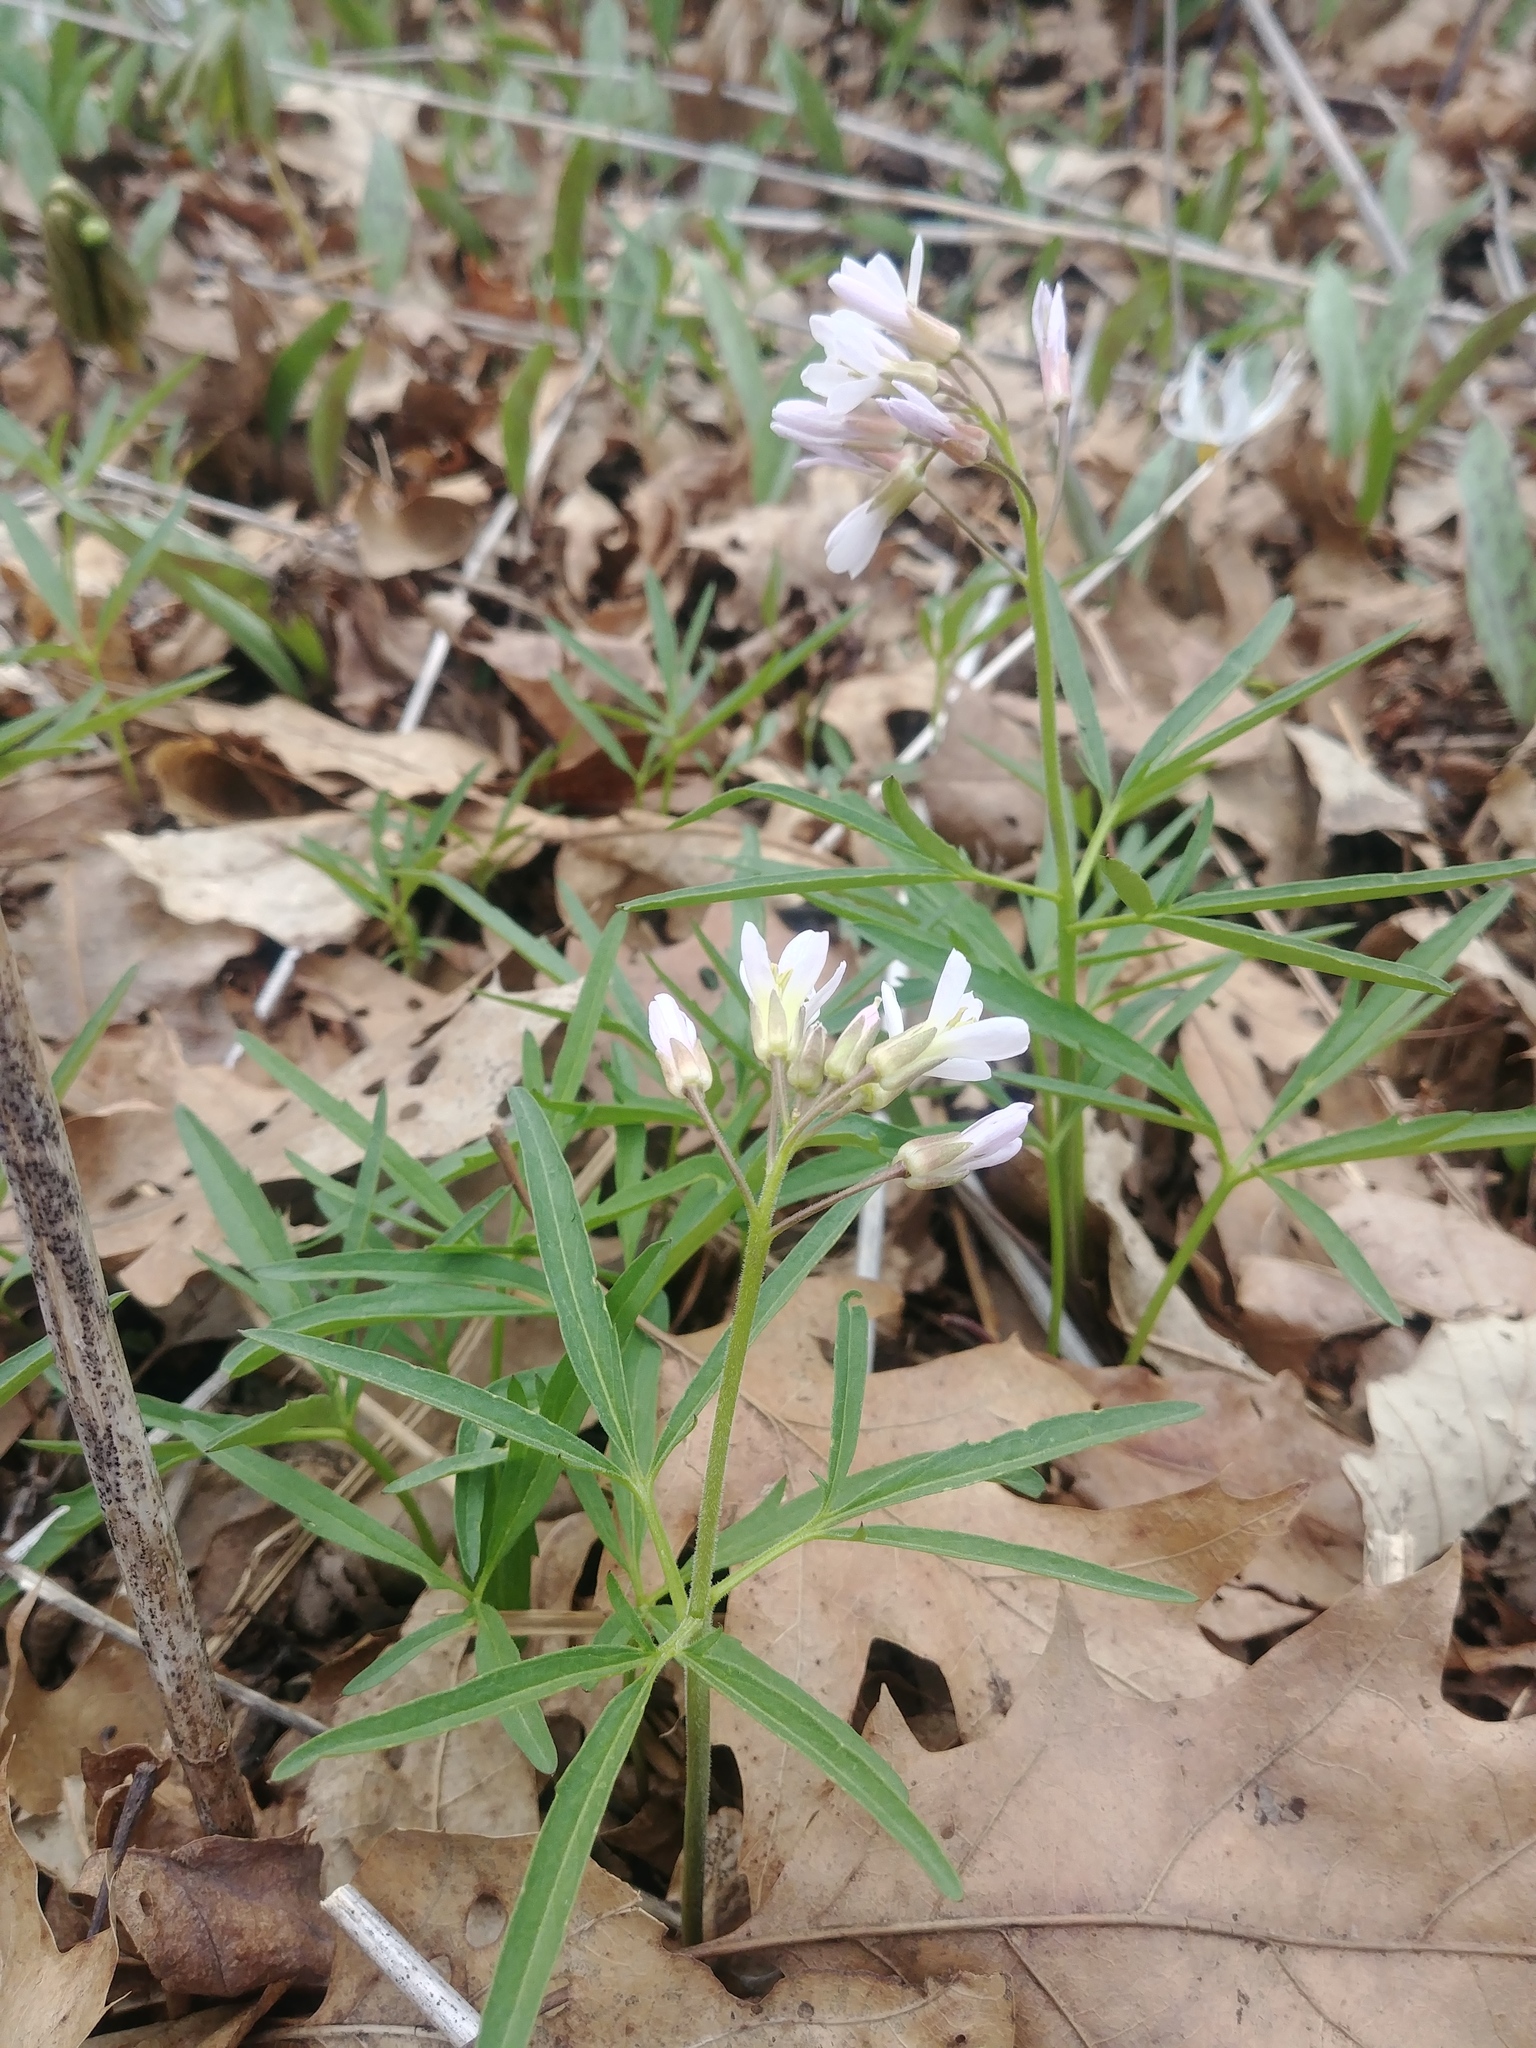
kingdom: Plantae
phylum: Tracheophyta
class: Magnoliopsida
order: Brassicales
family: Brassicaceae
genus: Cardamine
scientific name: Cardamine concatenata
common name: Cut-leaf toothcup
